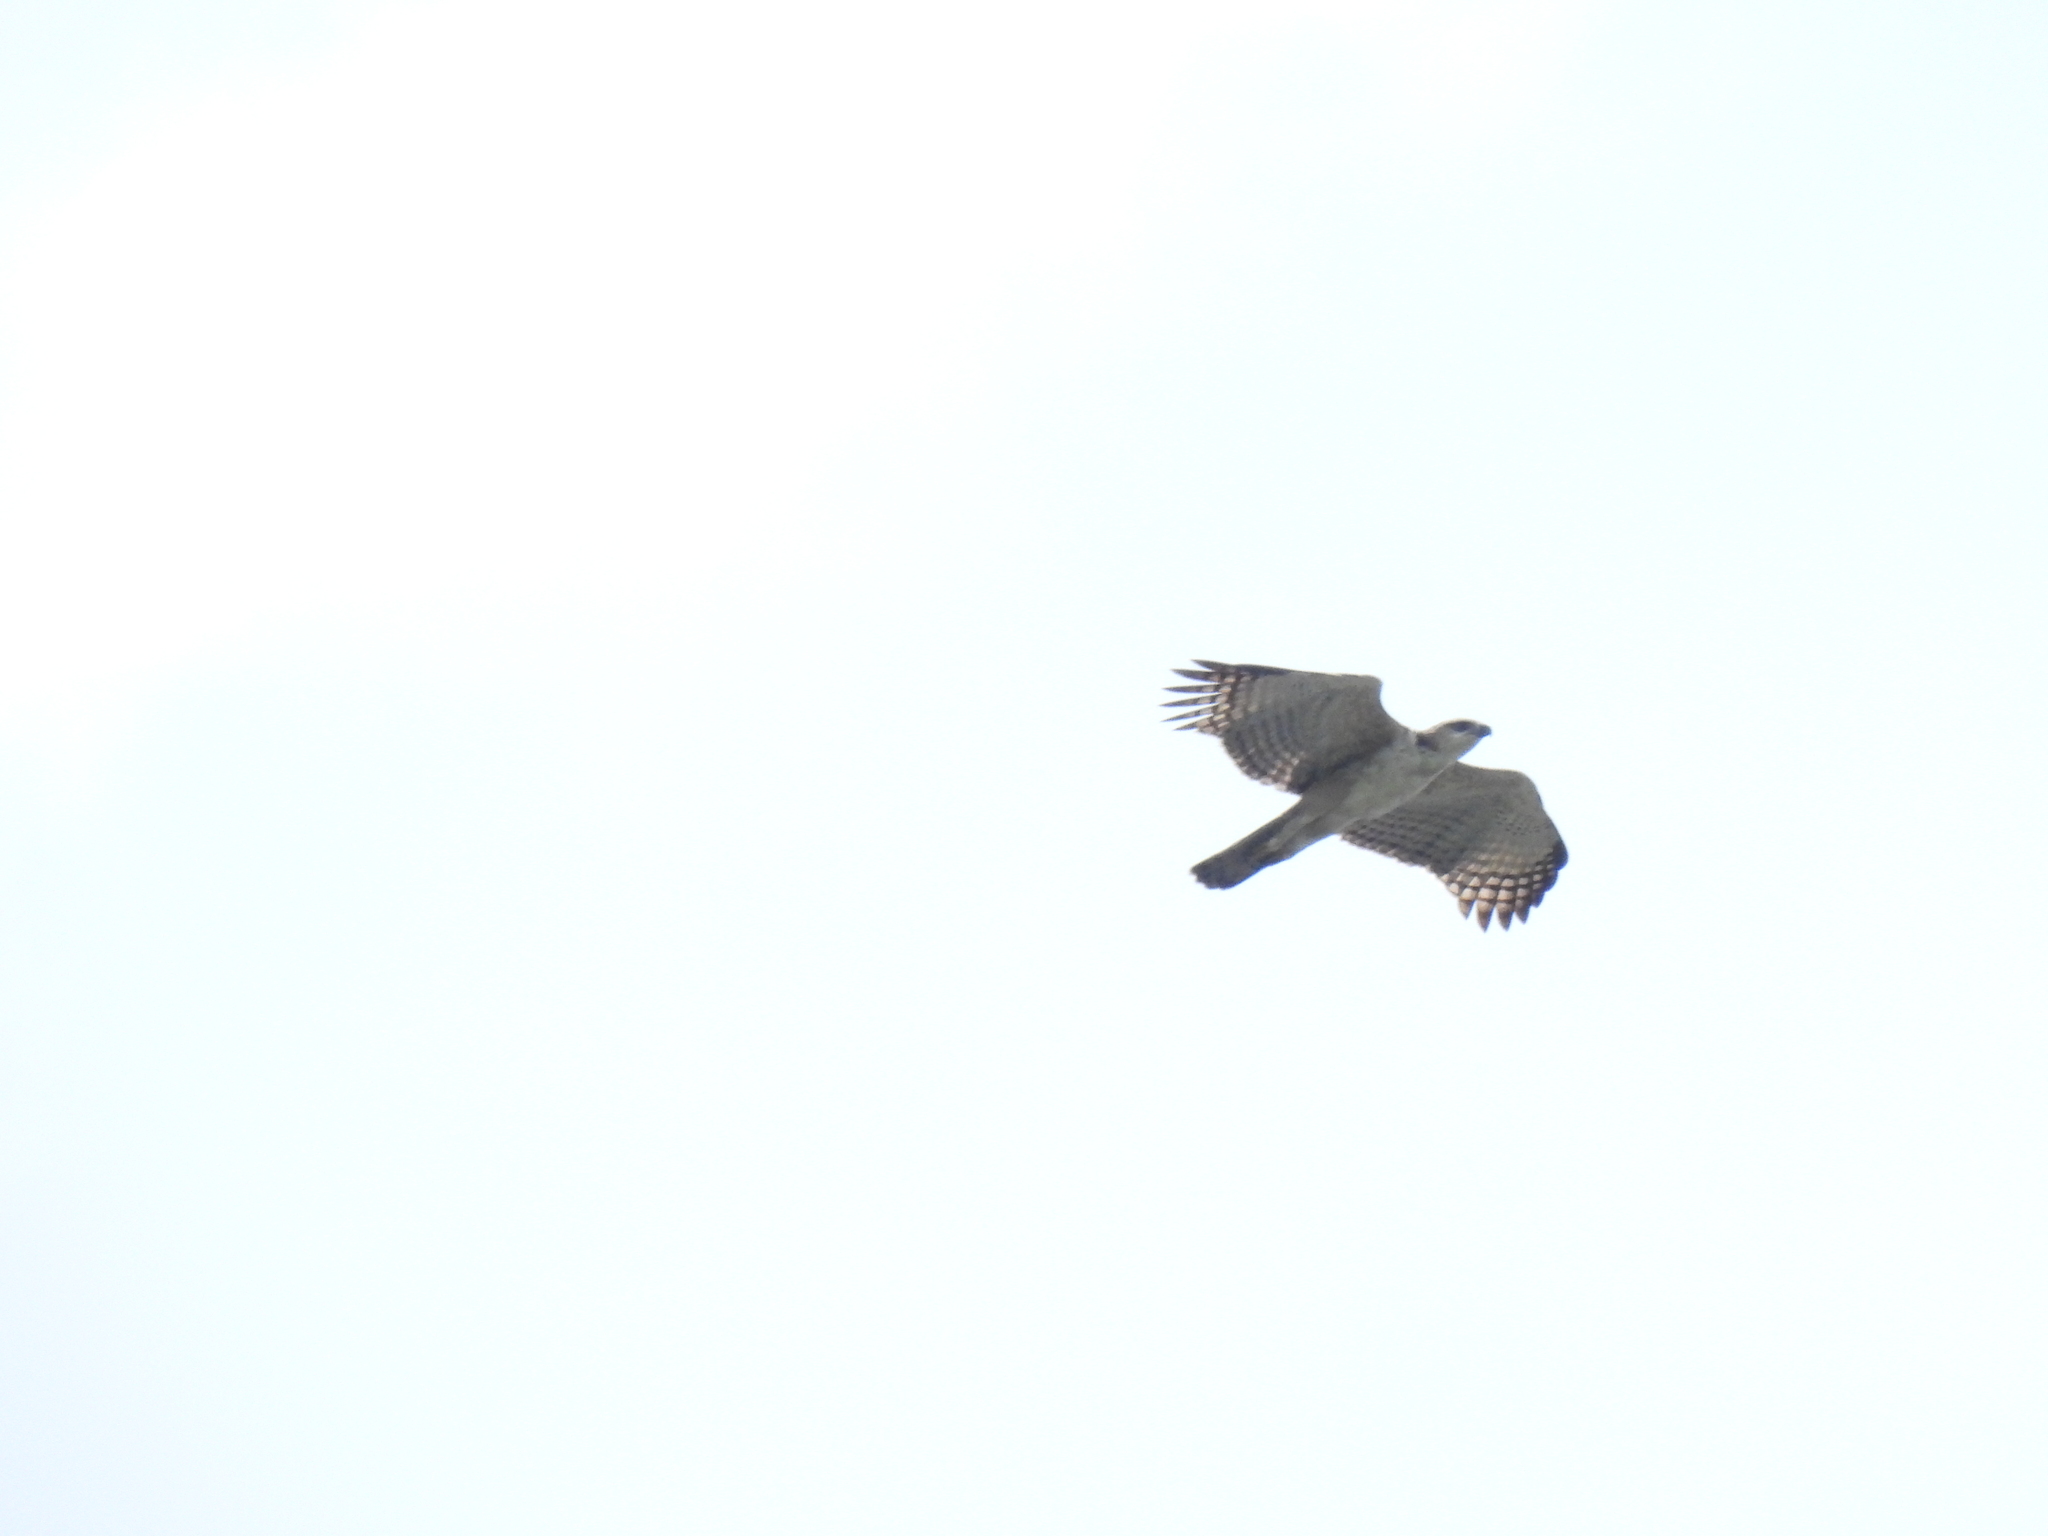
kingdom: Animalia
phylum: Chordata
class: Aves
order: Accipitriformes
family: Accipitridae
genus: Nisaetus
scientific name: Nisaetus cirrhatus
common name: Changeable hawk-eagle
